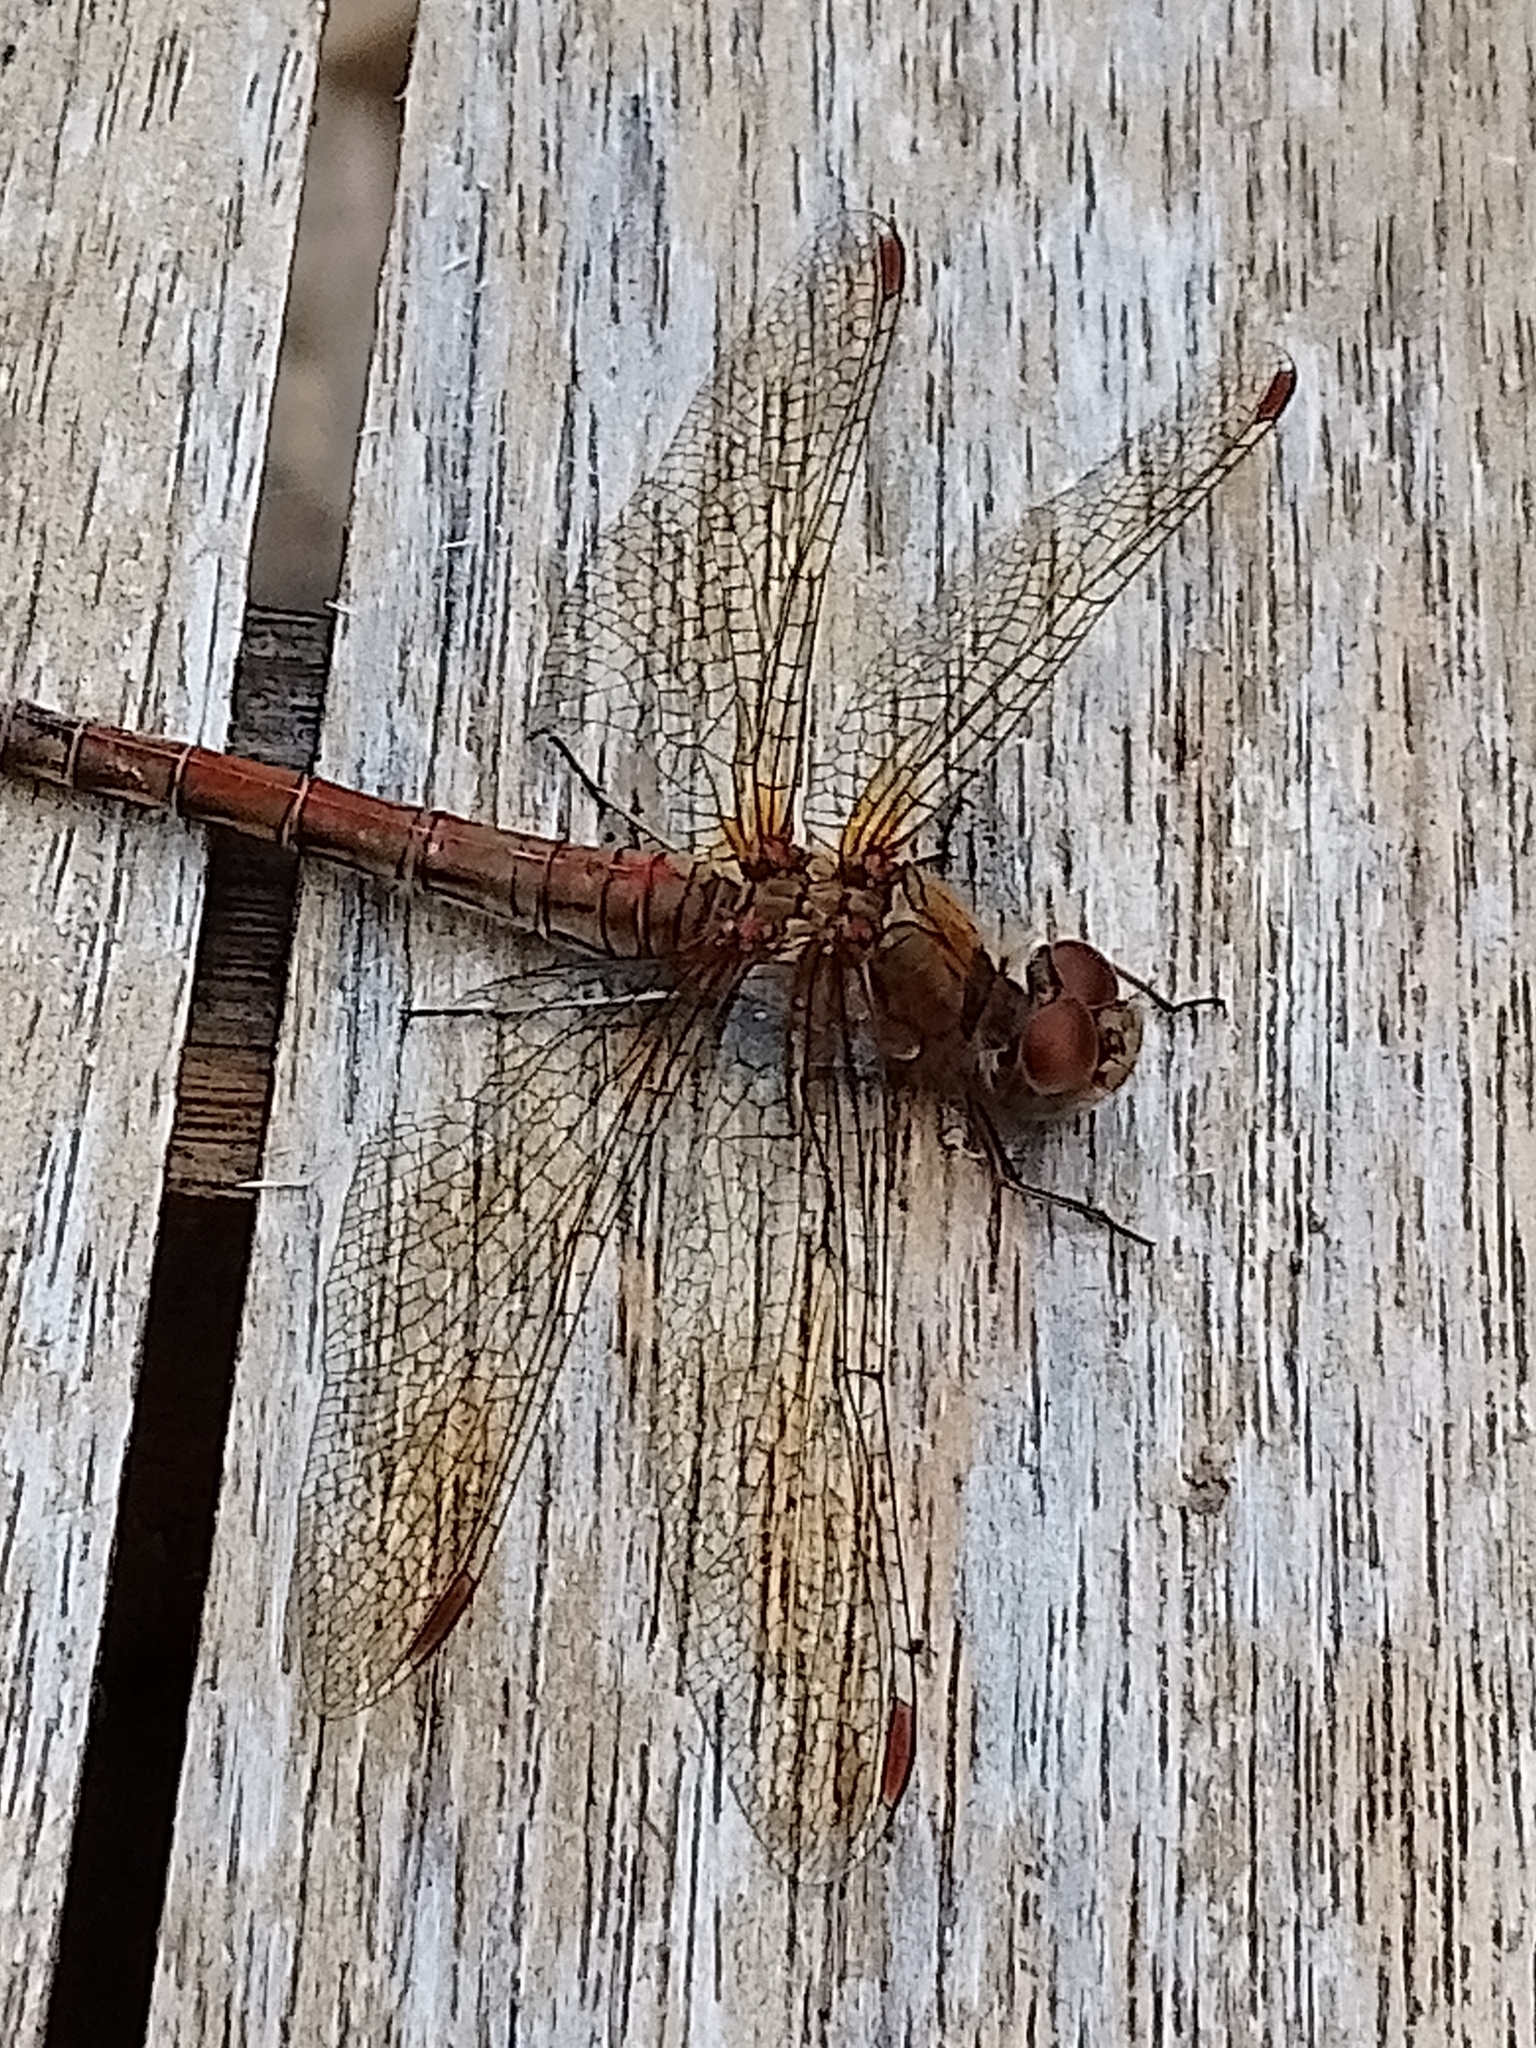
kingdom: Animalia
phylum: Arthropoda
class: Insecta
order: Odonata
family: Libellulidae
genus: Sympetrum
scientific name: Sympetrum striolatum
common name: Common darter
